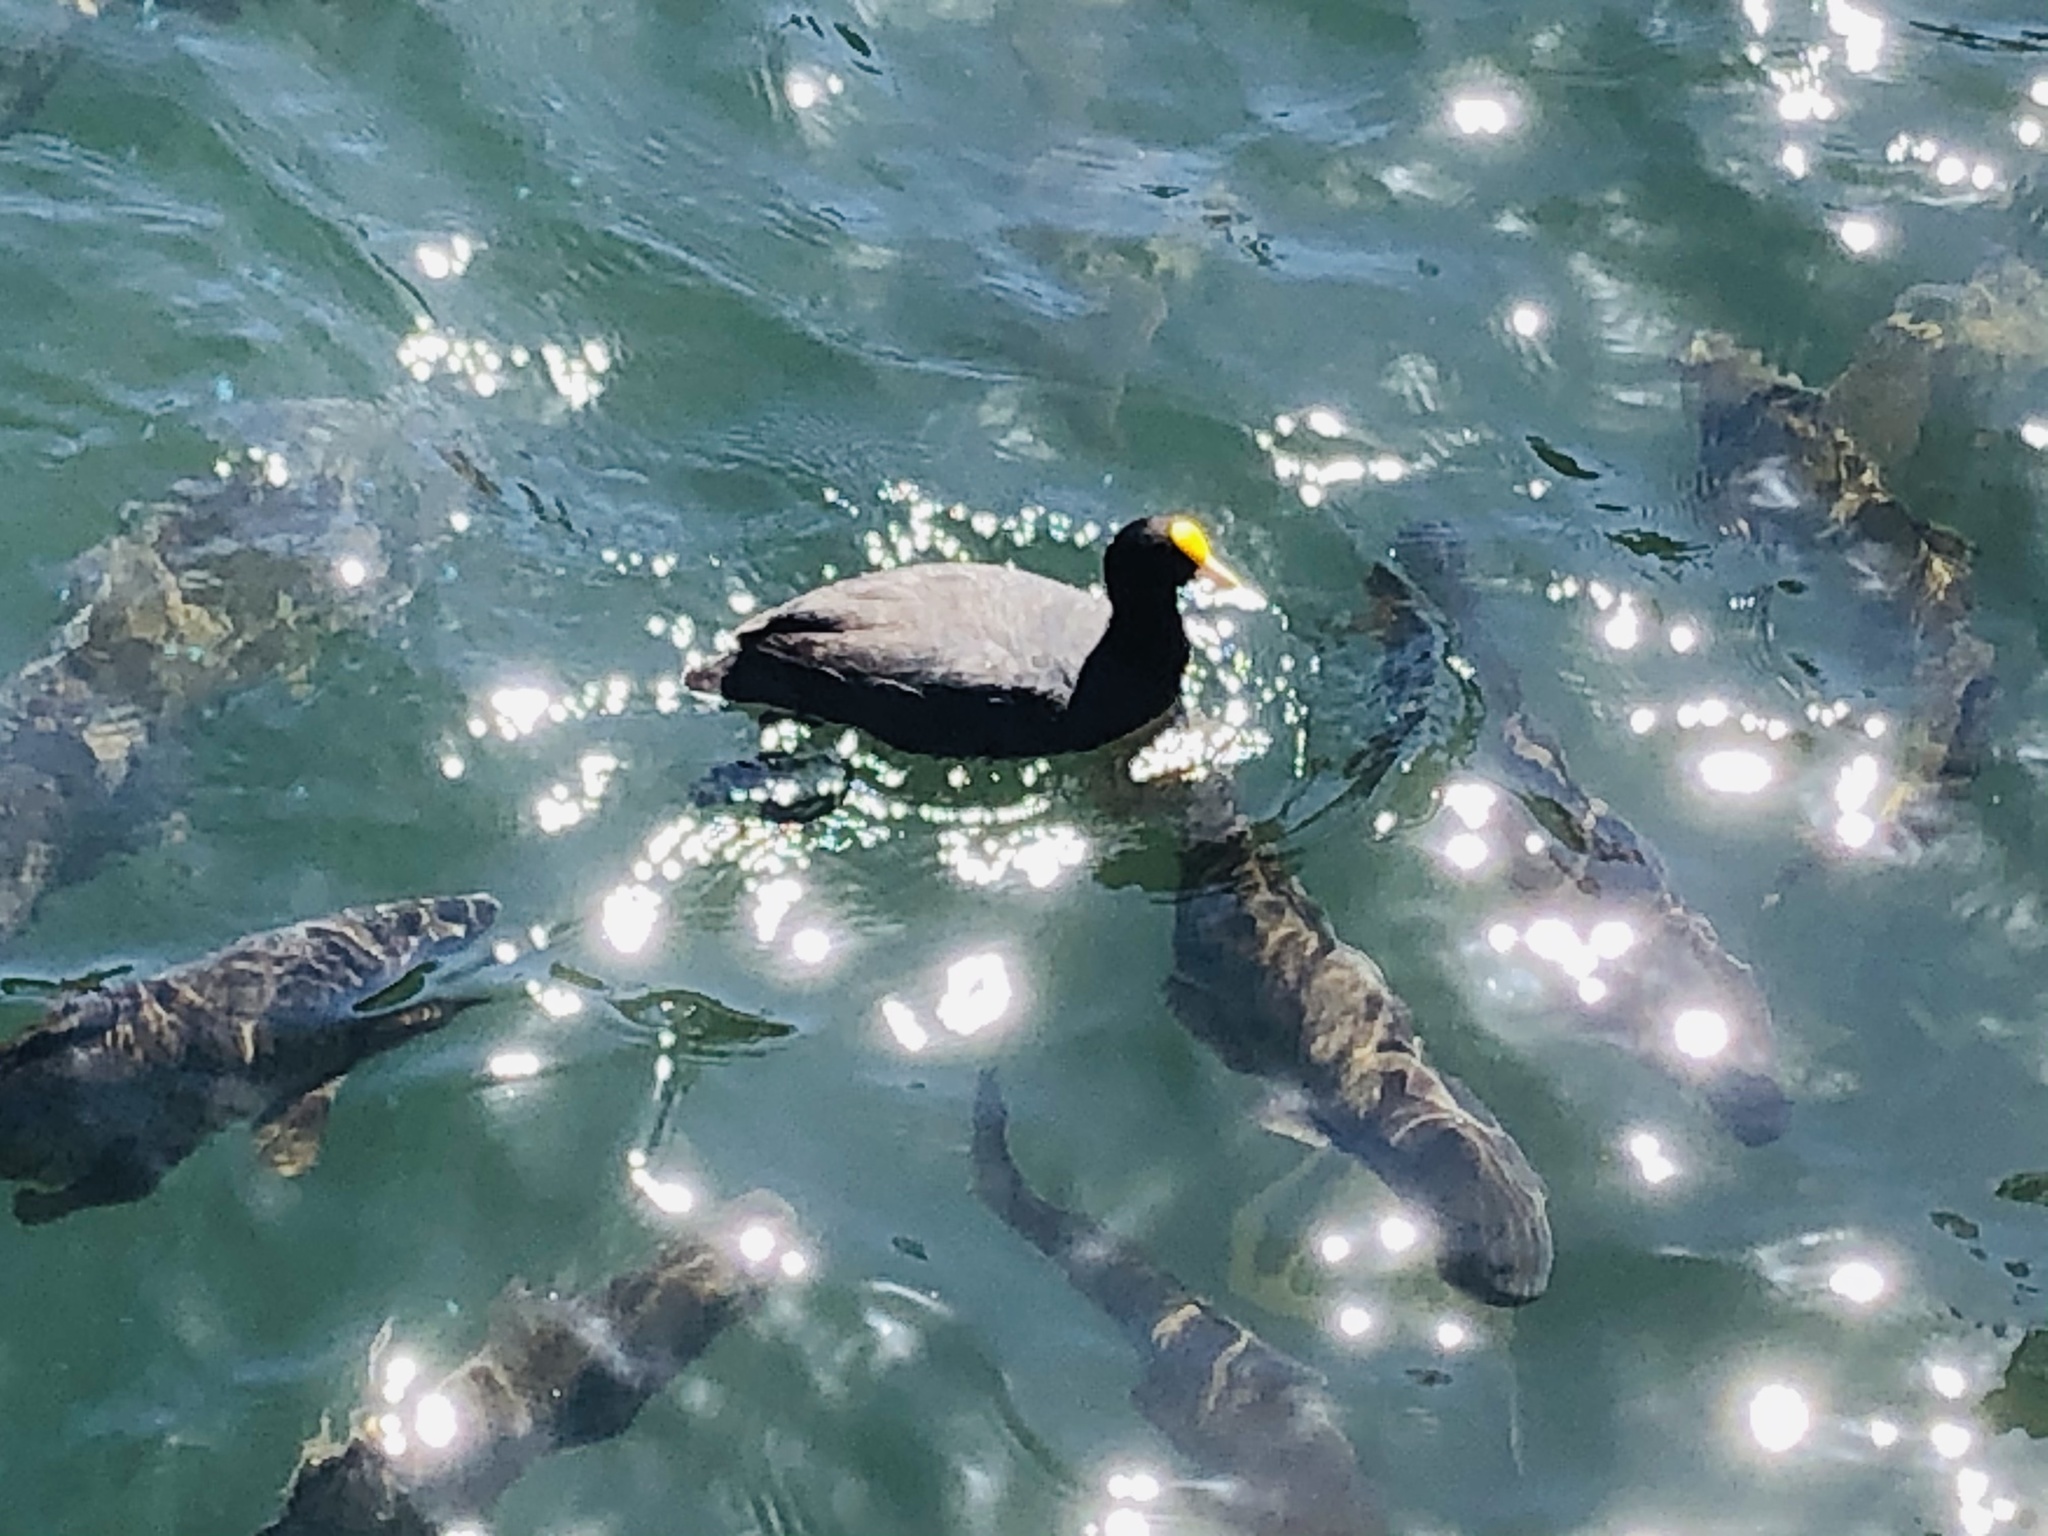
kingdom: Animalia
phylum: Chordata
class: Aves
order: Gruiformes
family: Rallidae
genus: Fulica
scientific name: Fulica leucoptera
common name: White-winged coot
